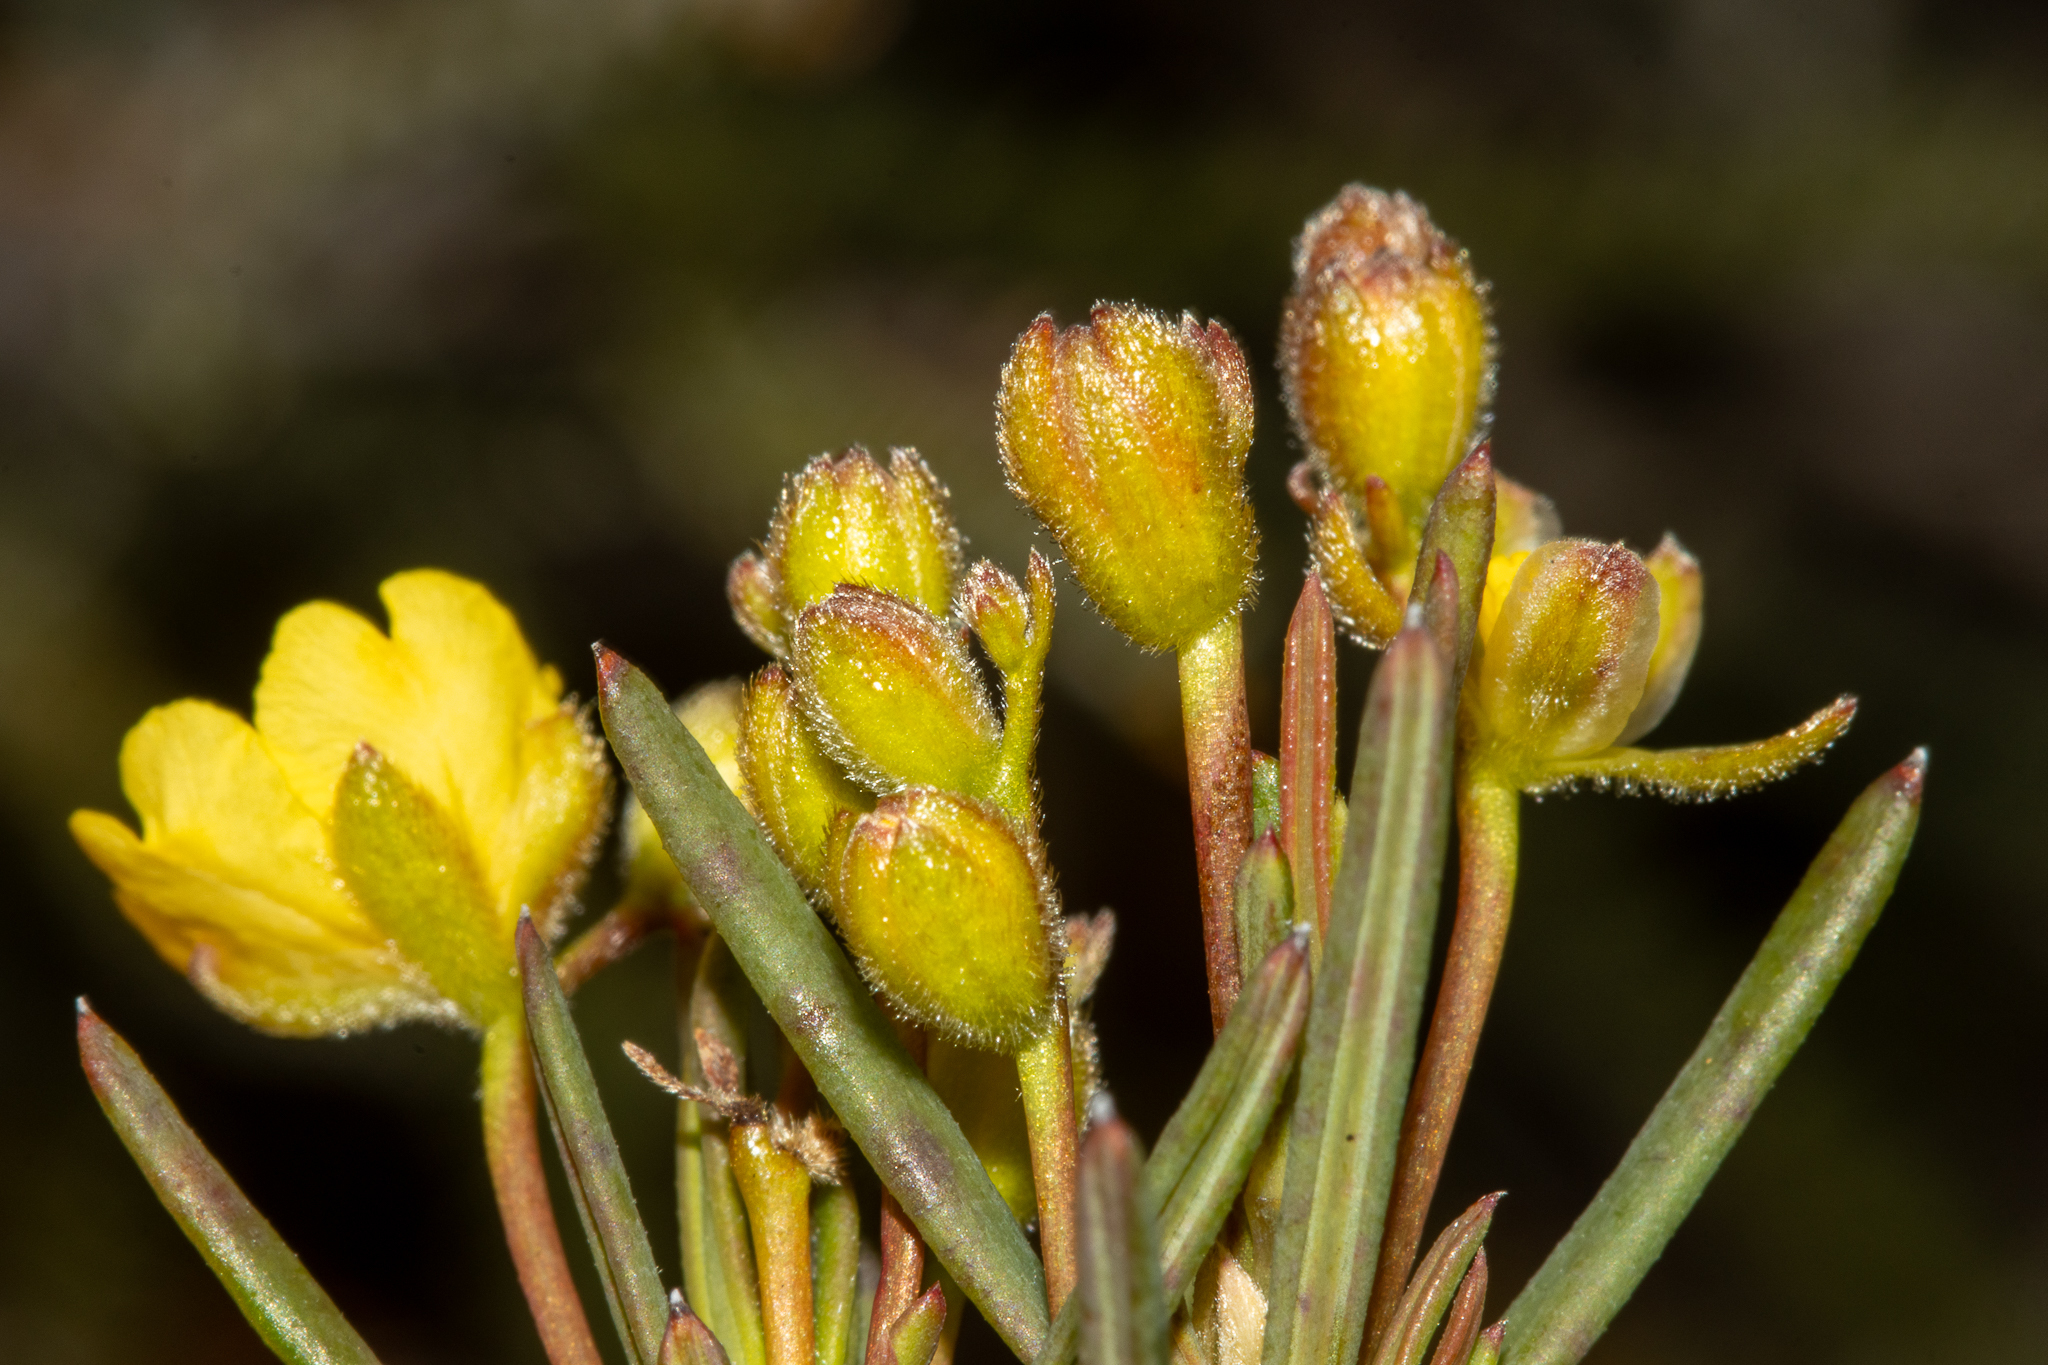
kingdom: Plantae
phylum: Tracheophyta
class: Magnoliopsida
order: Dilleniales
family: Dilleniaceae
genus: Hibbertia
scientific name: Hibbertia subglabra
